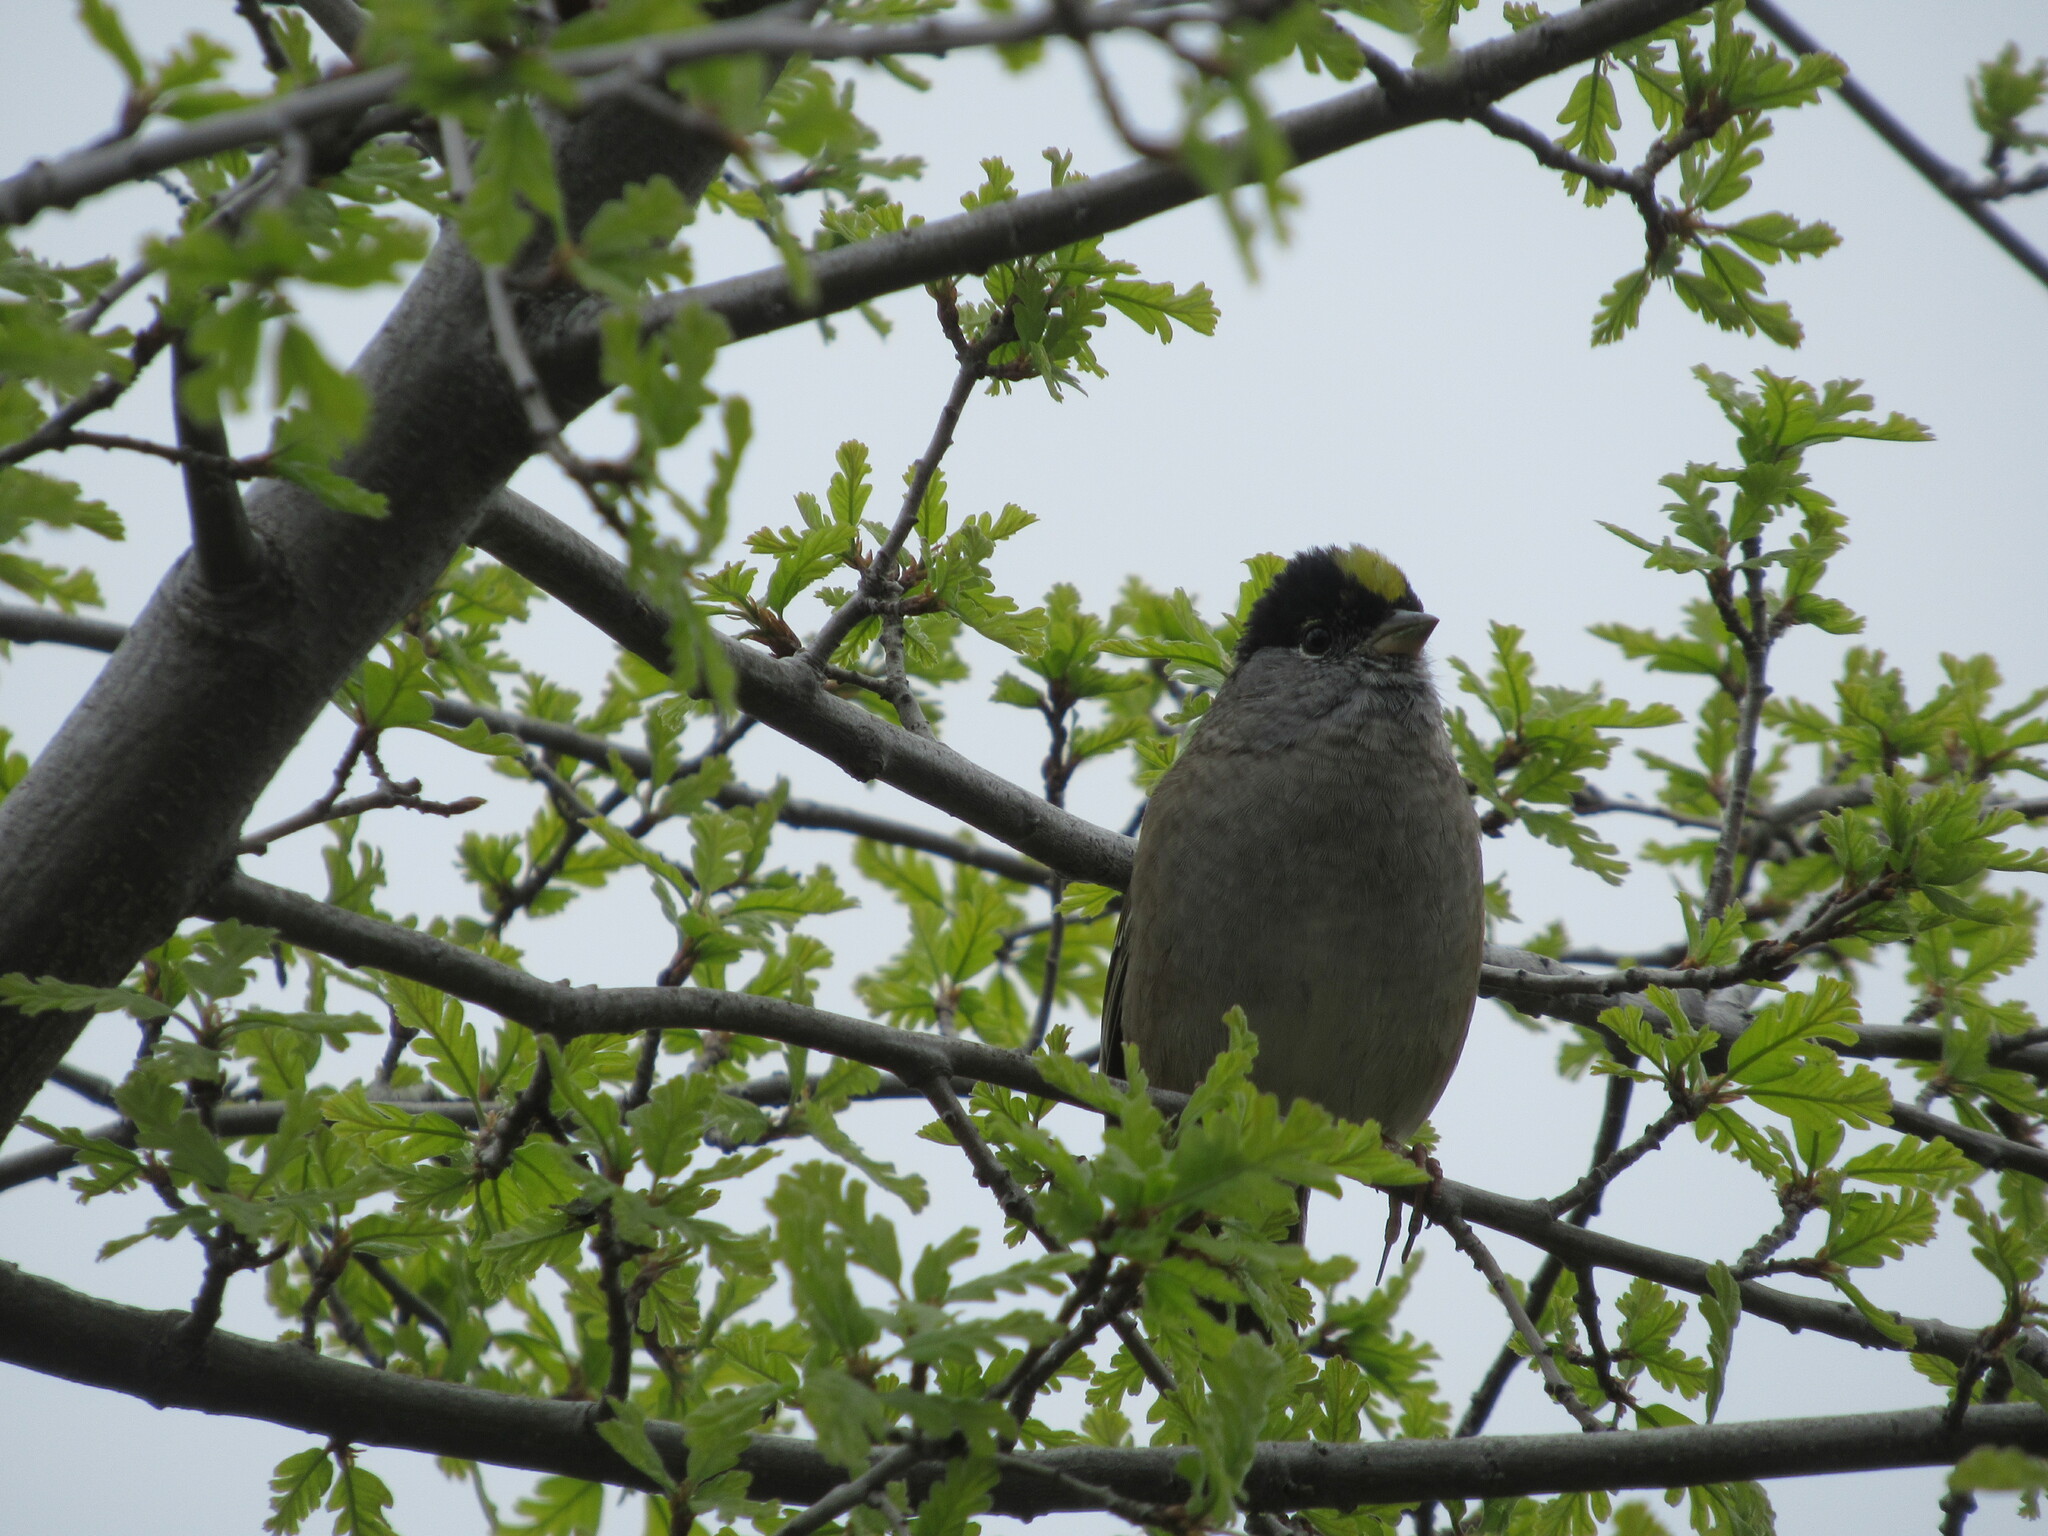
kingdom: Animalia
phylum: Chordata
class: Aves
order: Passeriformes
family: Passerellidae
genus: Zonotrichia
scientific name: Zonotrichia atricapilla
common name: Golden-crowned sparrow
